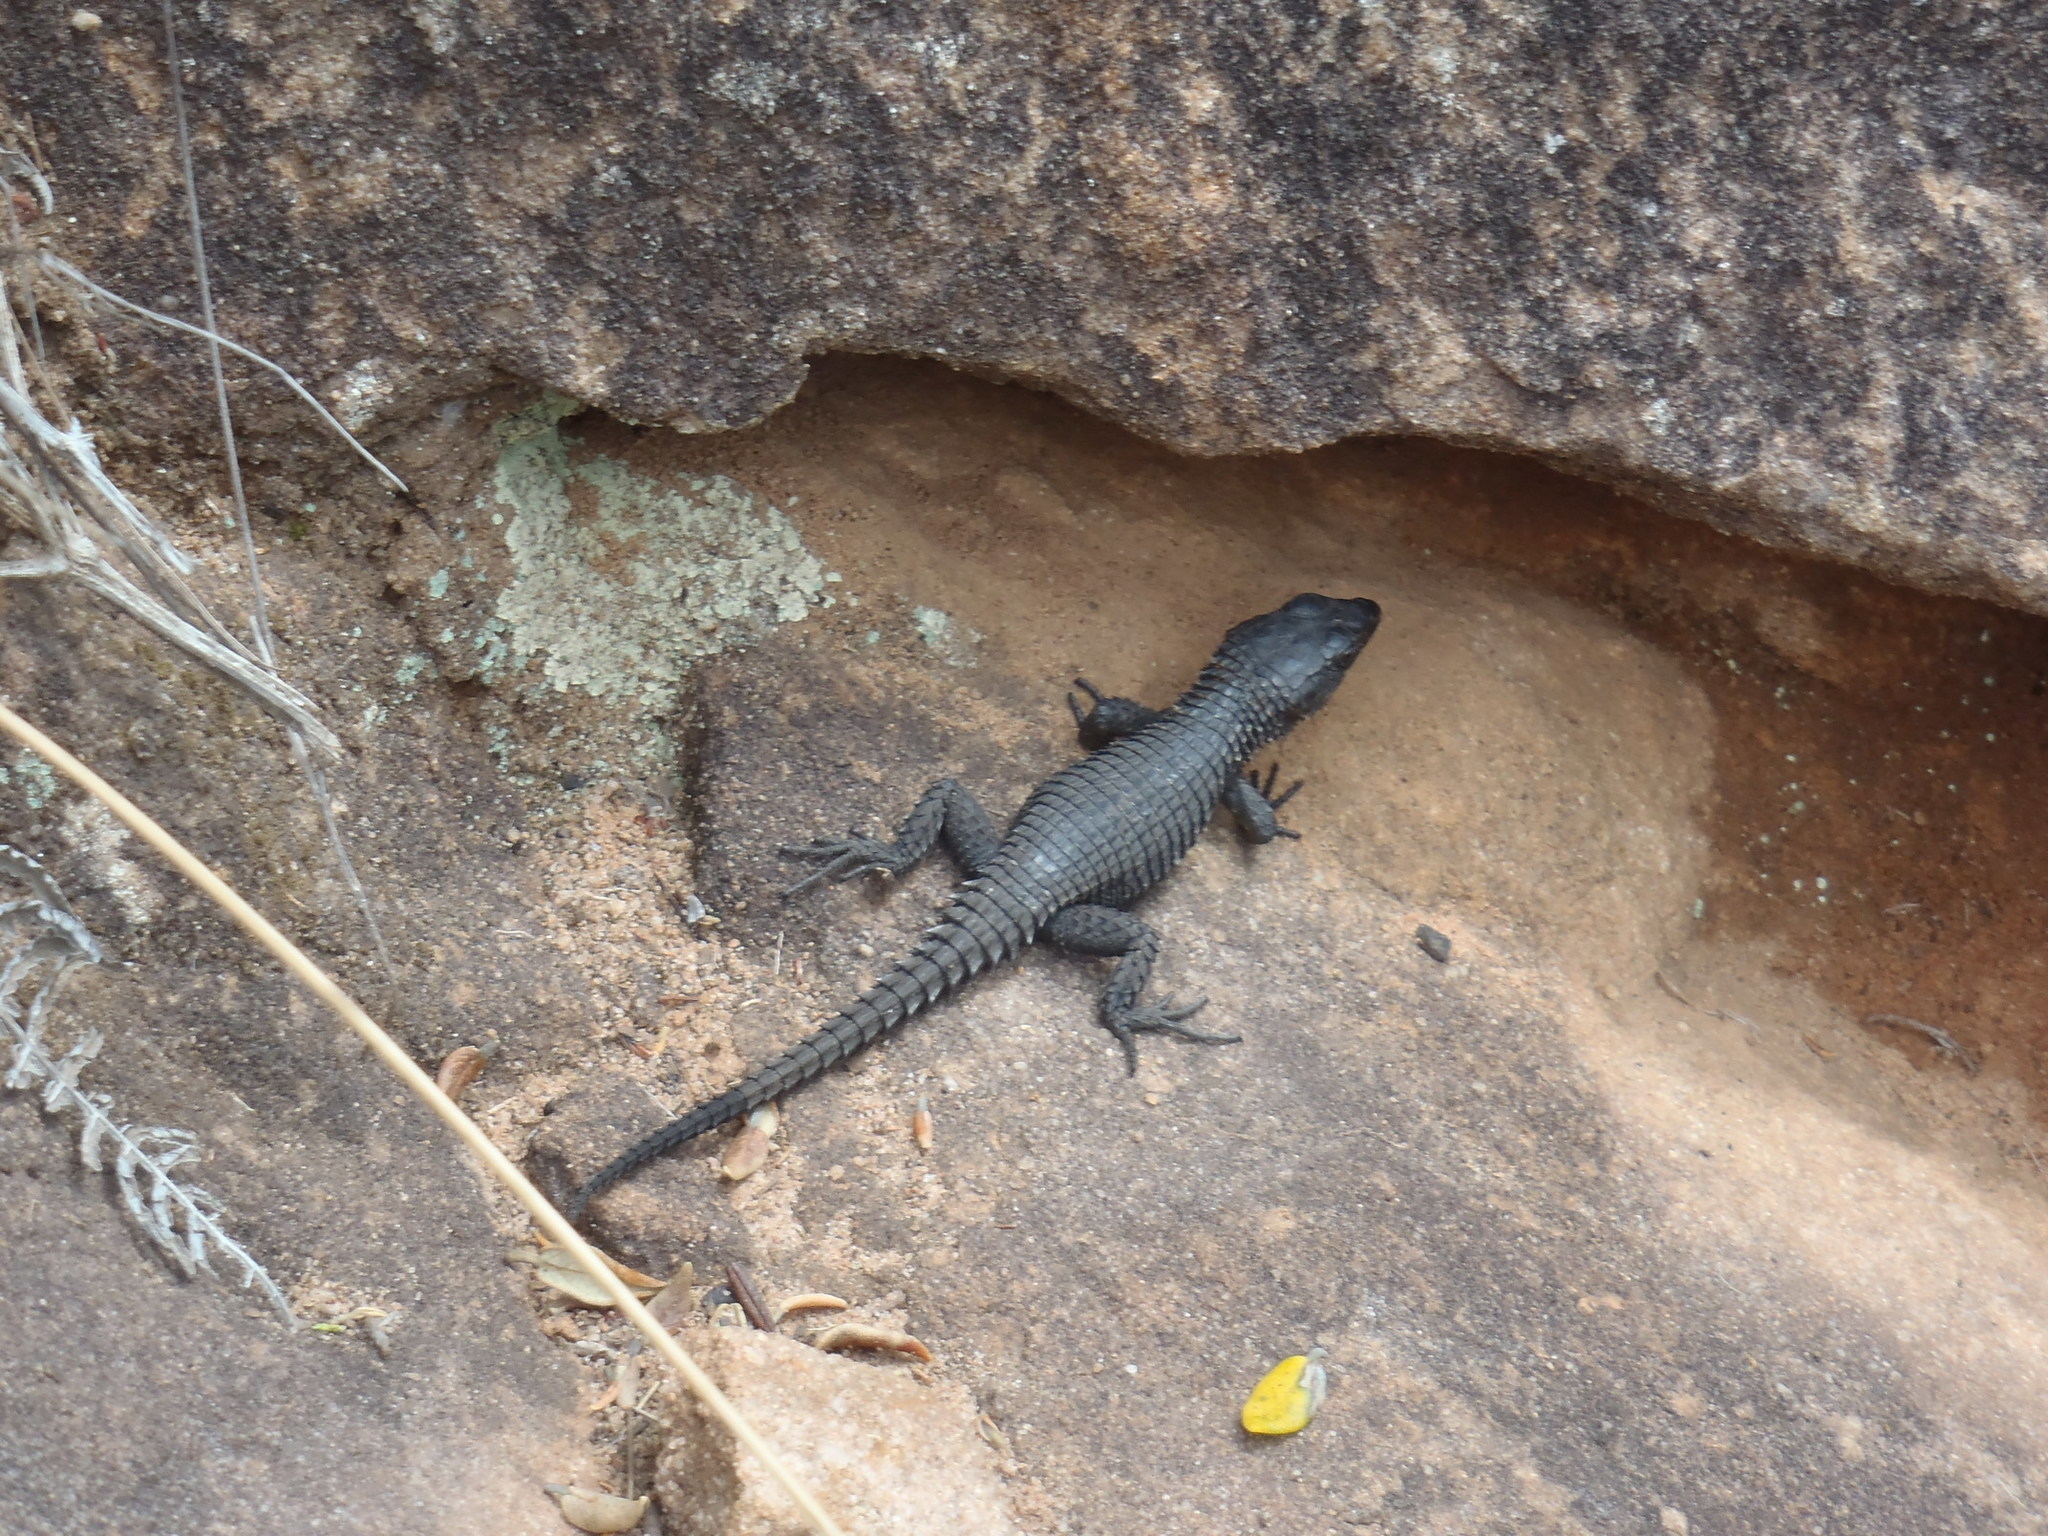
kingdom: Animalia
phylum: Chordata
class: Squamata
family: Cordylidae
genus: Cordylus
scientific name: Cordylus niger
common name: Black girdled lizard
